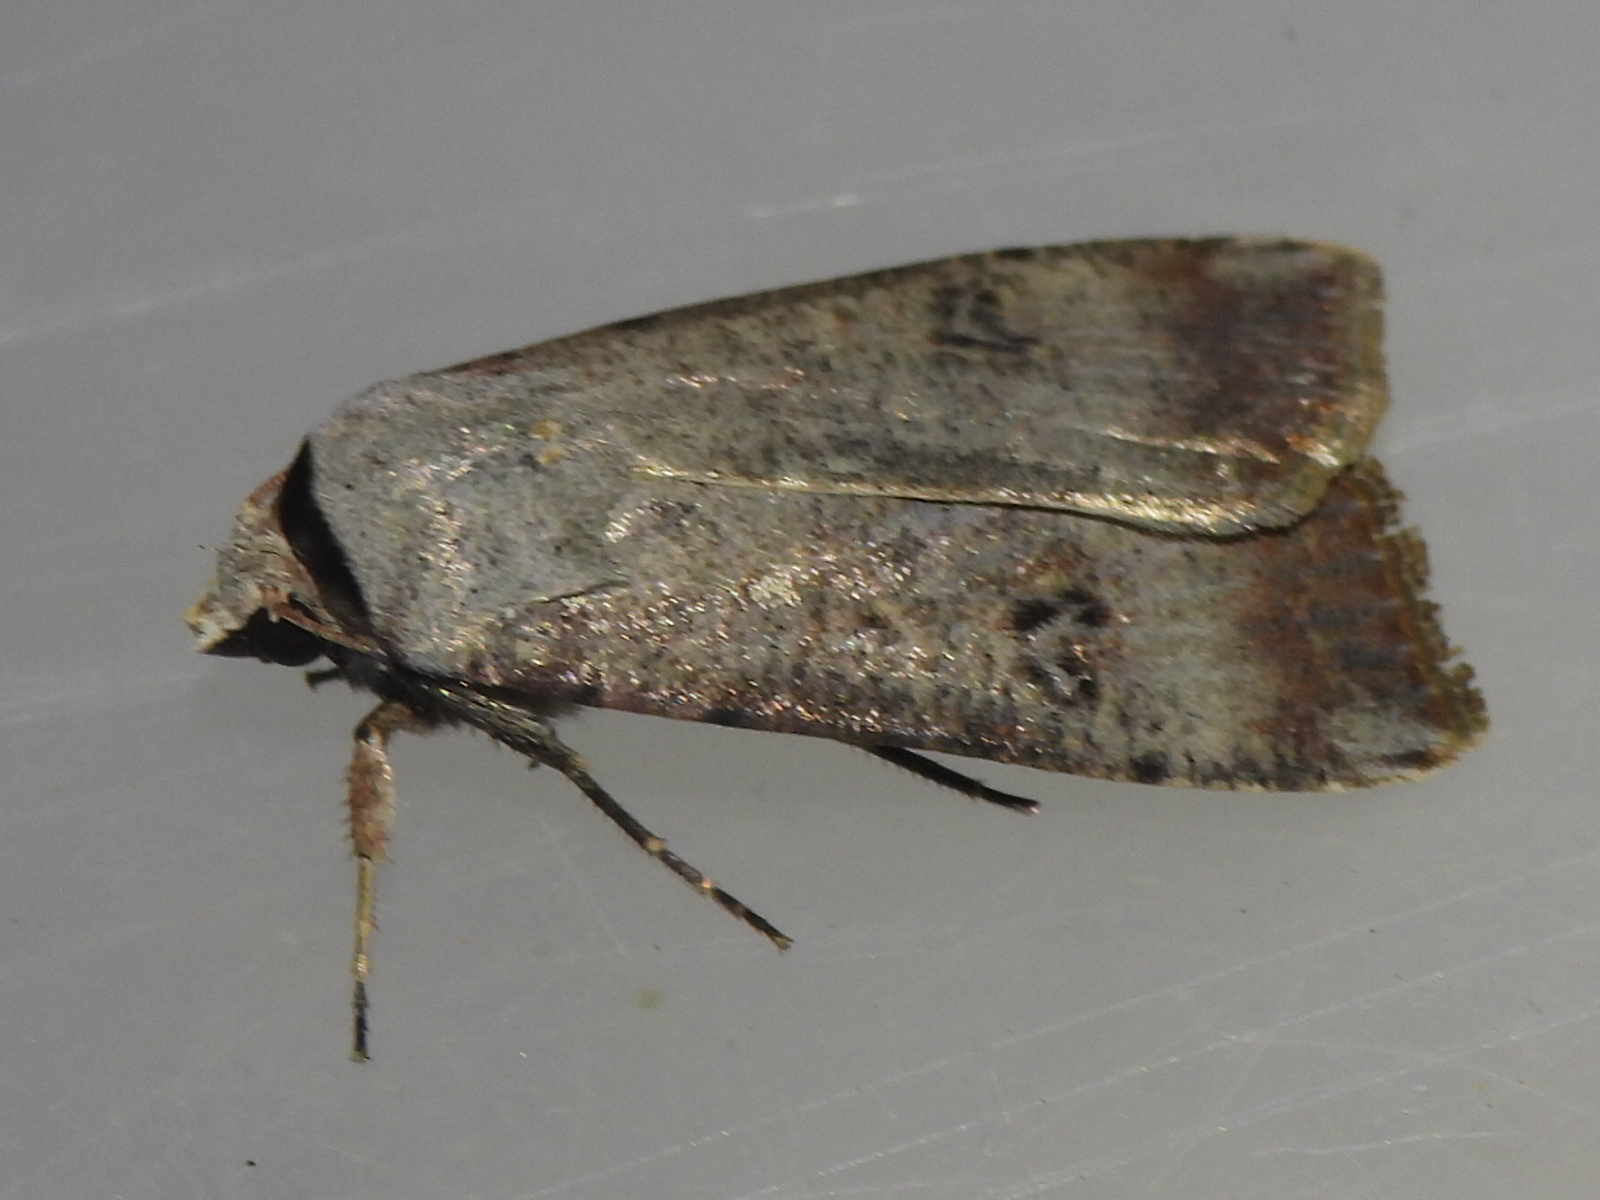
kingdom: Animalia
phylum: Arthropoda
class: Insecta
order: Lepidoptera
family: Noctuidae
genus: Anicla
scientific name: Anicla infecta
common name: Green cutworm
